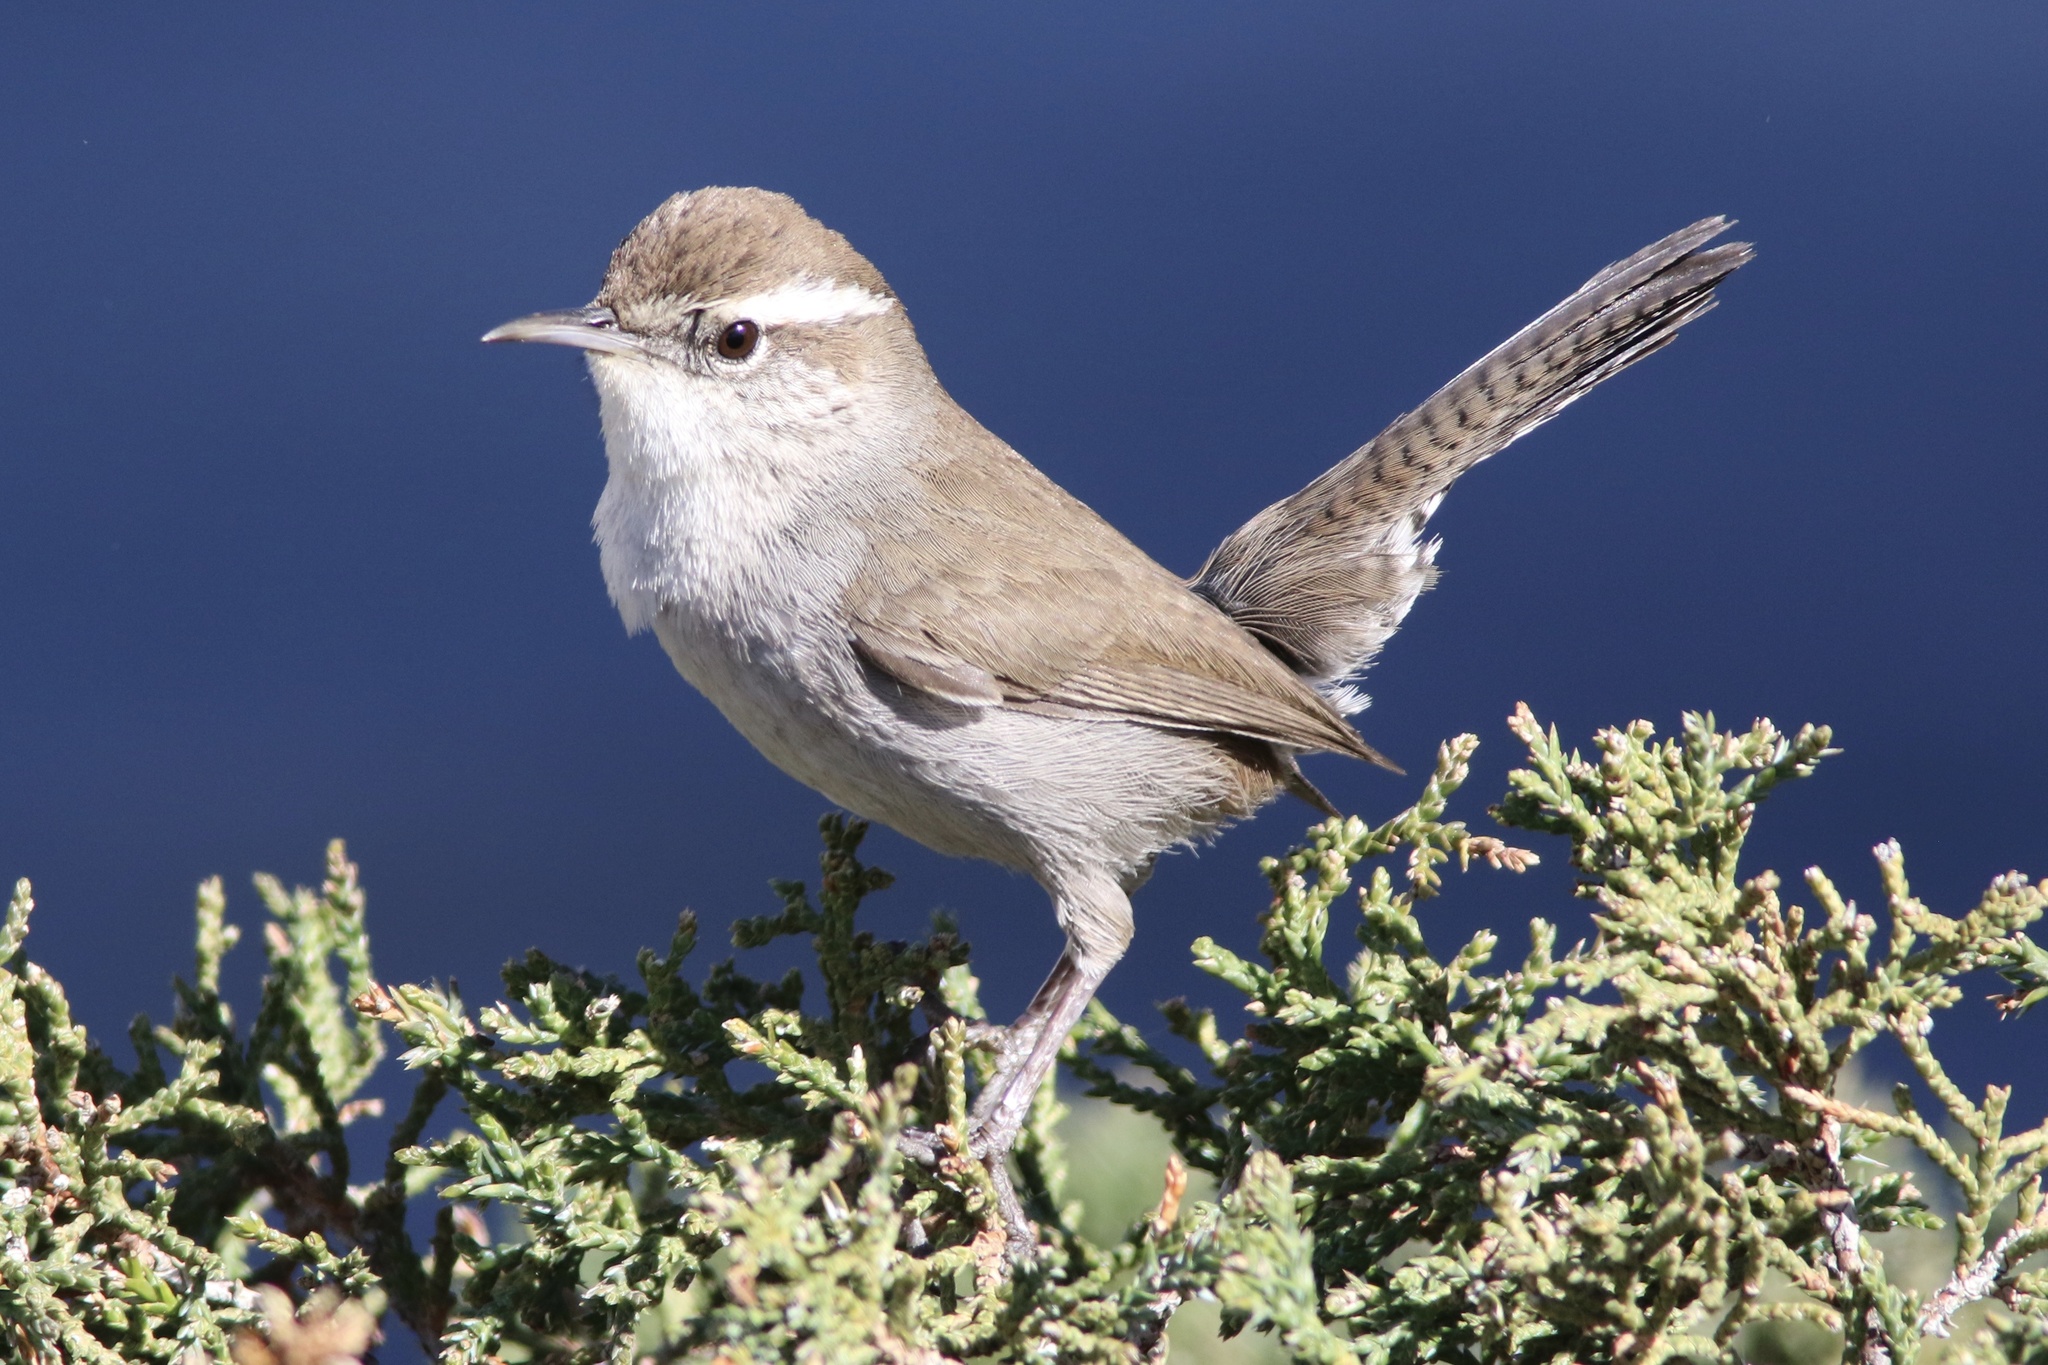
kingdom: Animalia
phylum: Chordata
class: Aves
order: Passeriformes
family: Troglodytidae
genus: Thryomanes
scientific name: Thryomanes bewickii
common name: Bewick's wren
